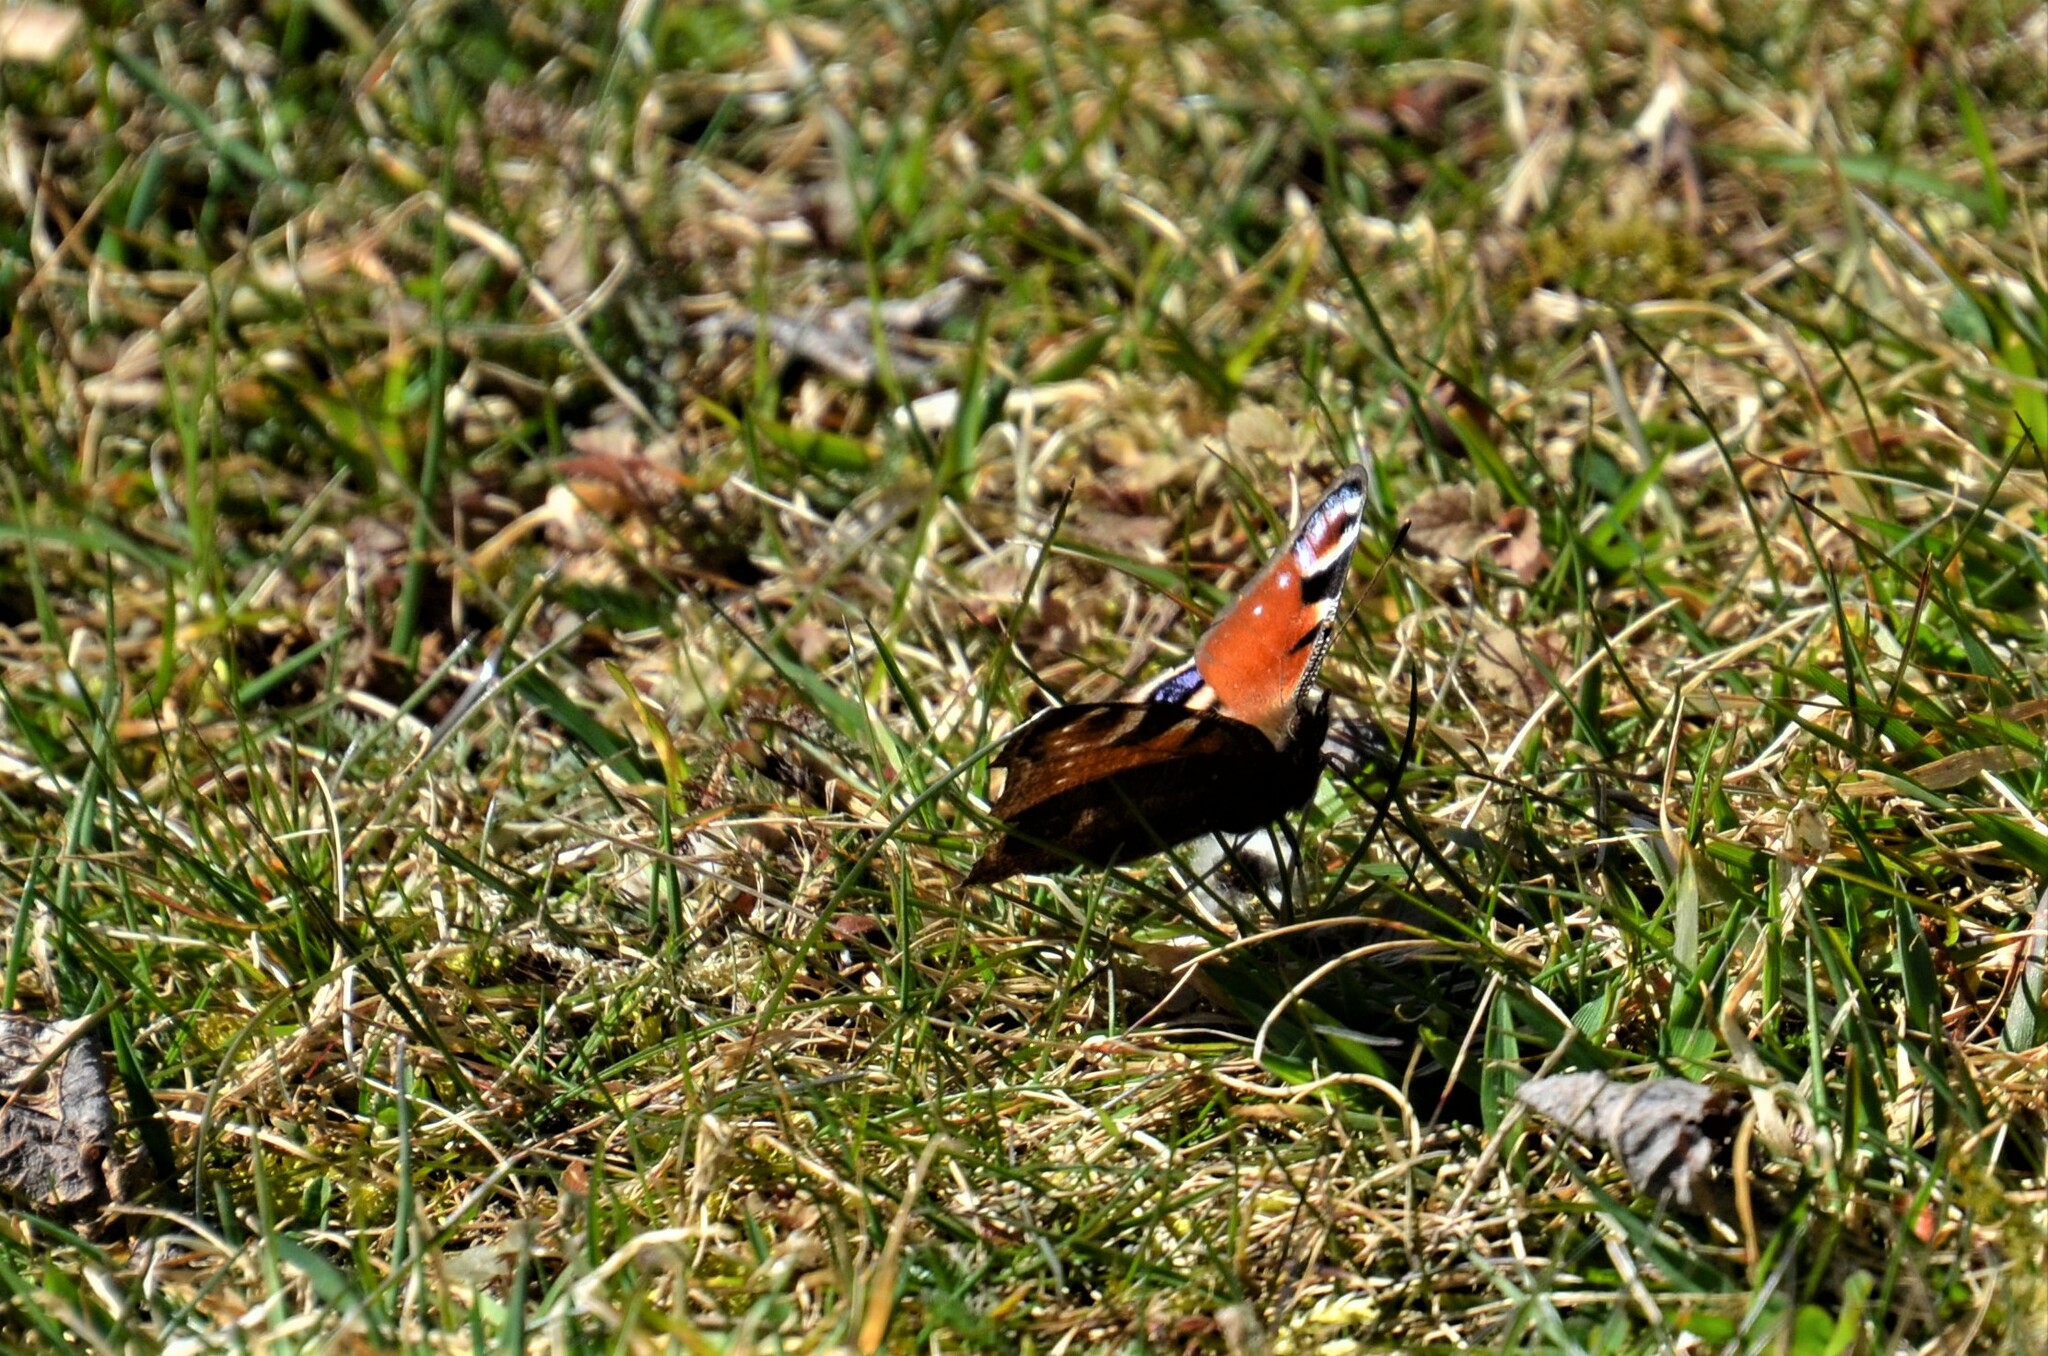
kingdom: Animalia
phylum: Arthropoda
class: Insecta
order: Lepidoptera
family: Nymphalidae
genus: Aglais
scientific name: Aglais io
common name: Peacock
